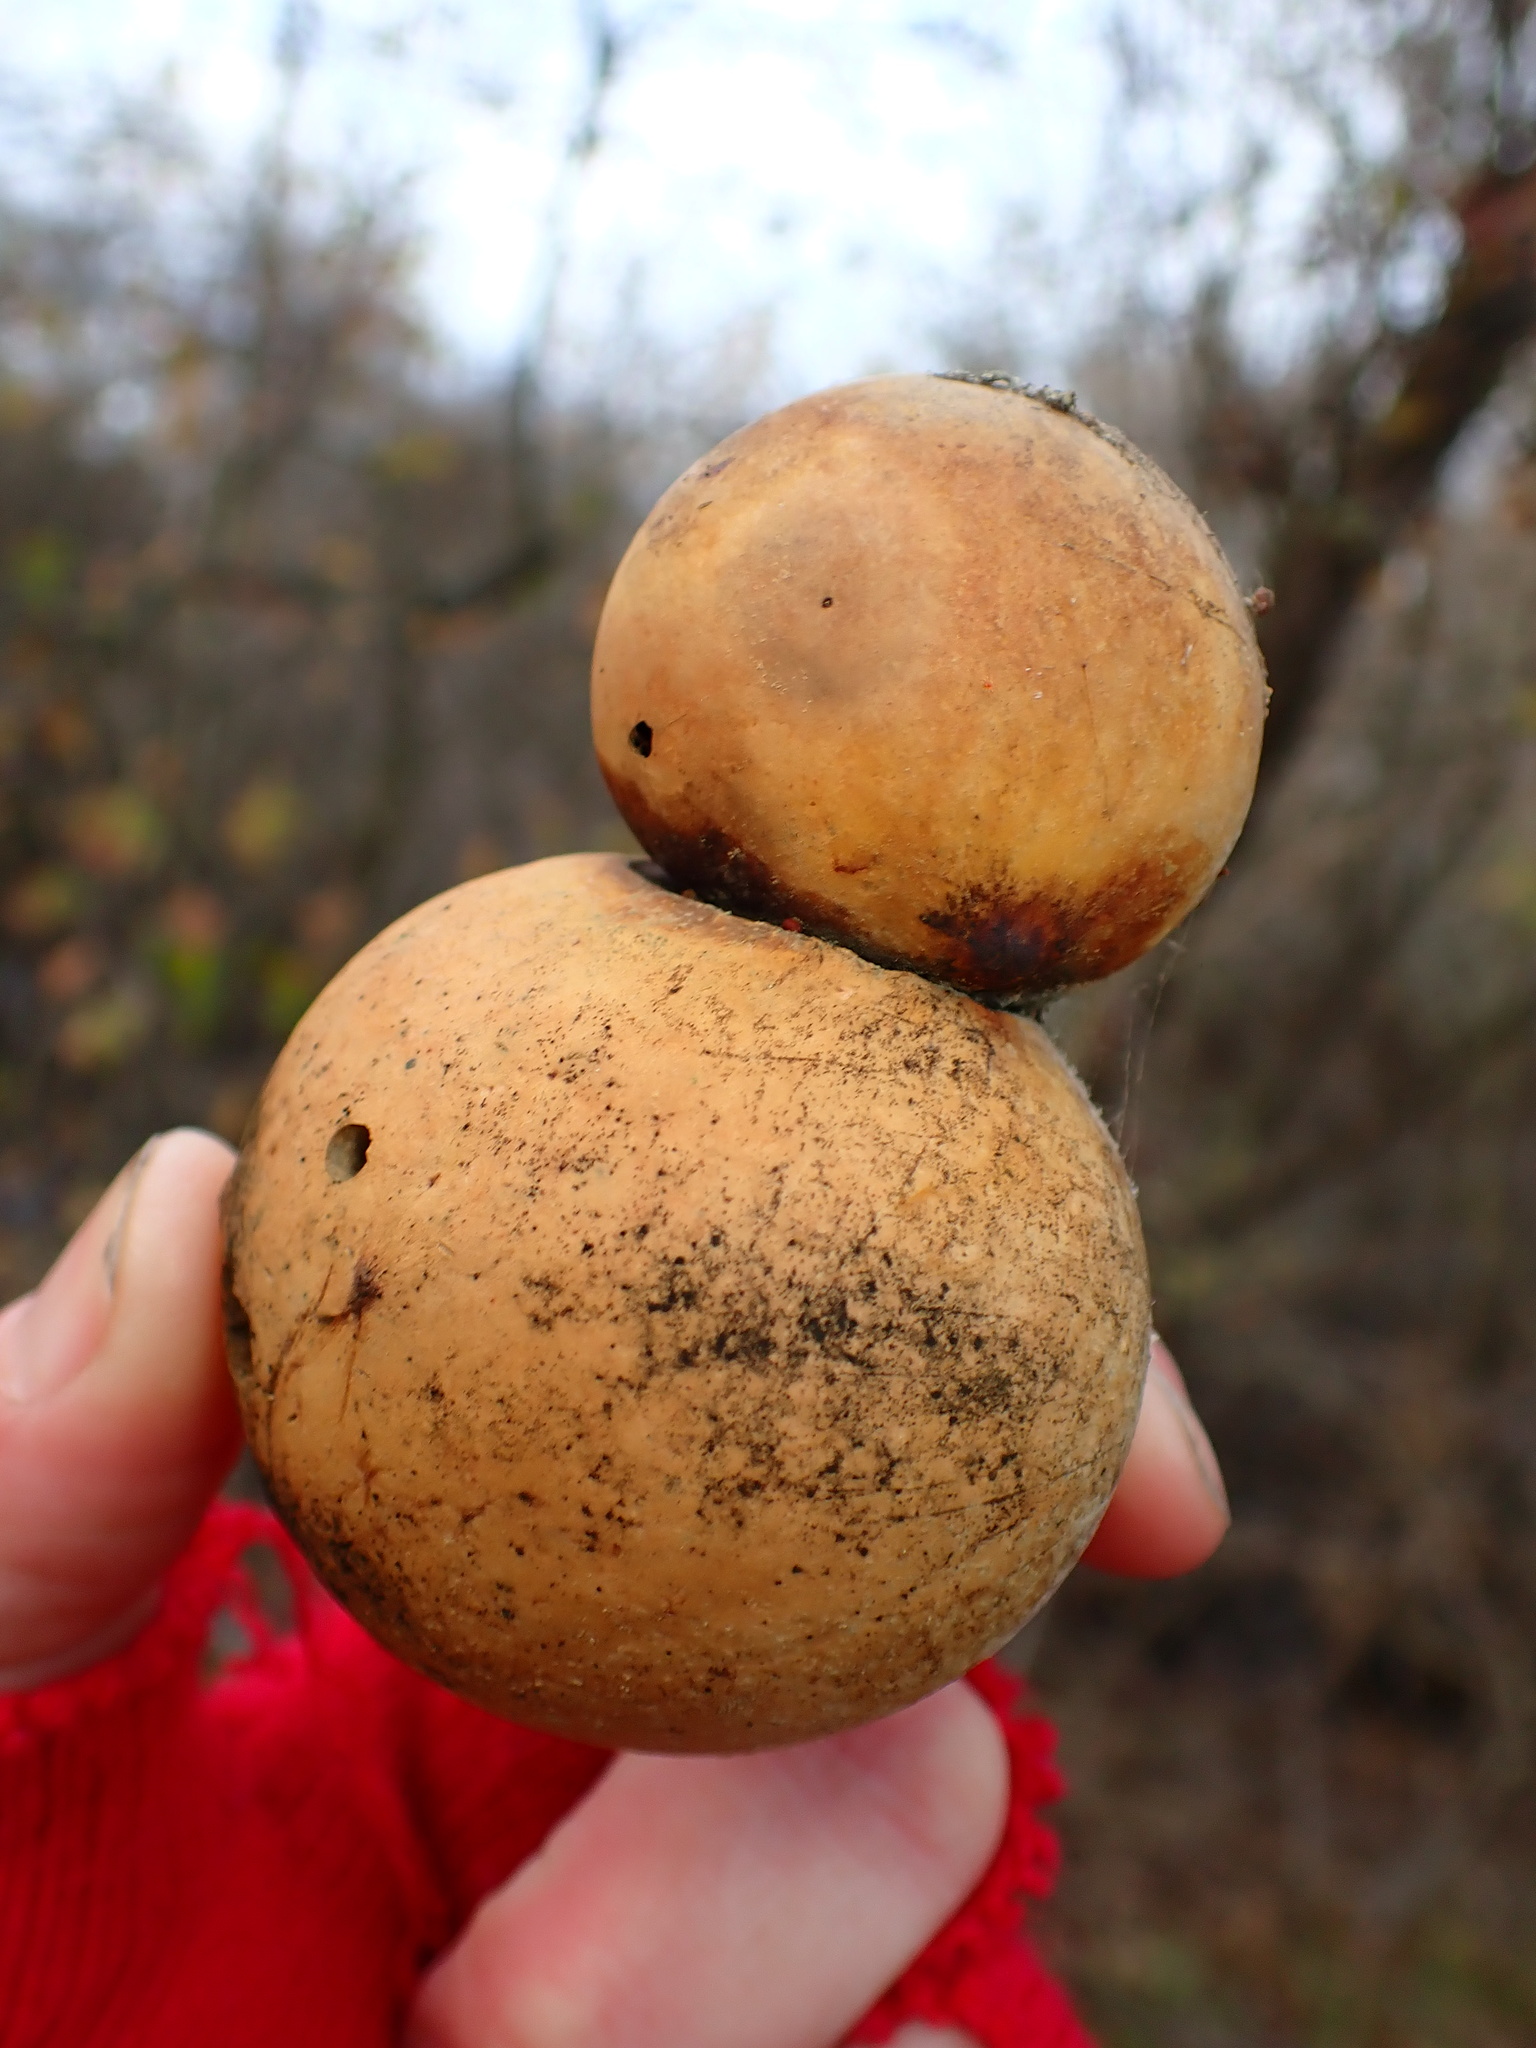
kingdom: Animalia
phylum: Arthropoda
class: Insecta
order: Hymenoptera
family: Cynipidae
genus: Andricus
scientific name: Andricus quercuscalifornicus
